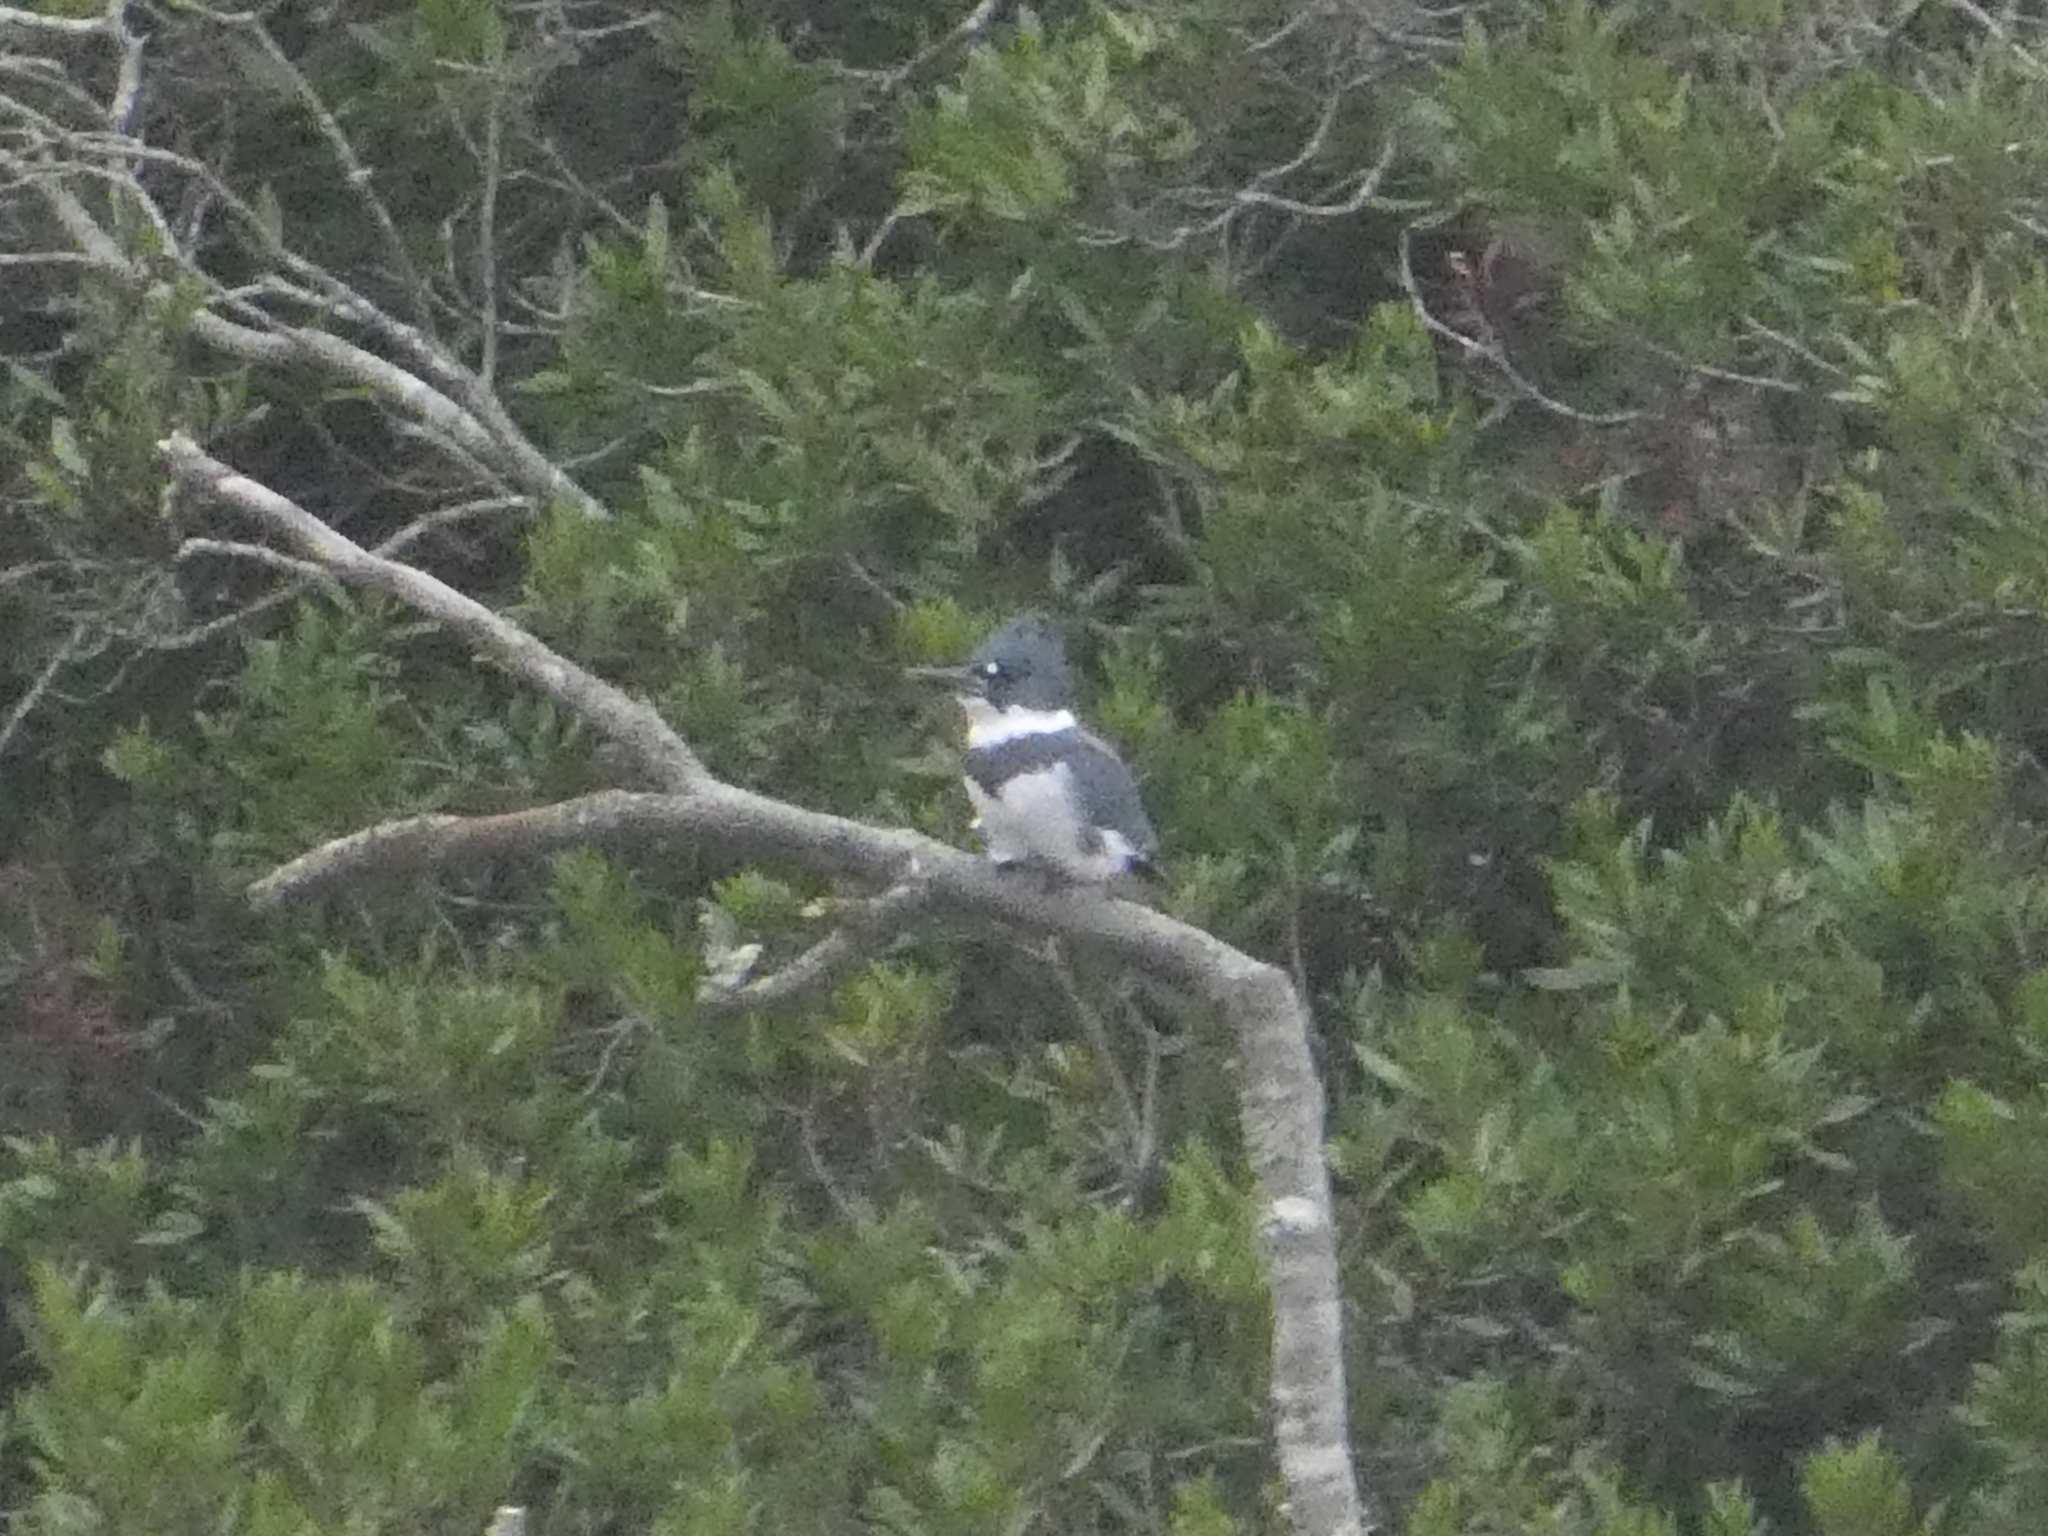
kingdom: Animalia
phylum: Chordata
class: Aves
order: Coraciiformes
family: Alcedinidae
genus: Megaceryle
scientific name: Megaceryle alcyon
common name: Belted kingfisher
